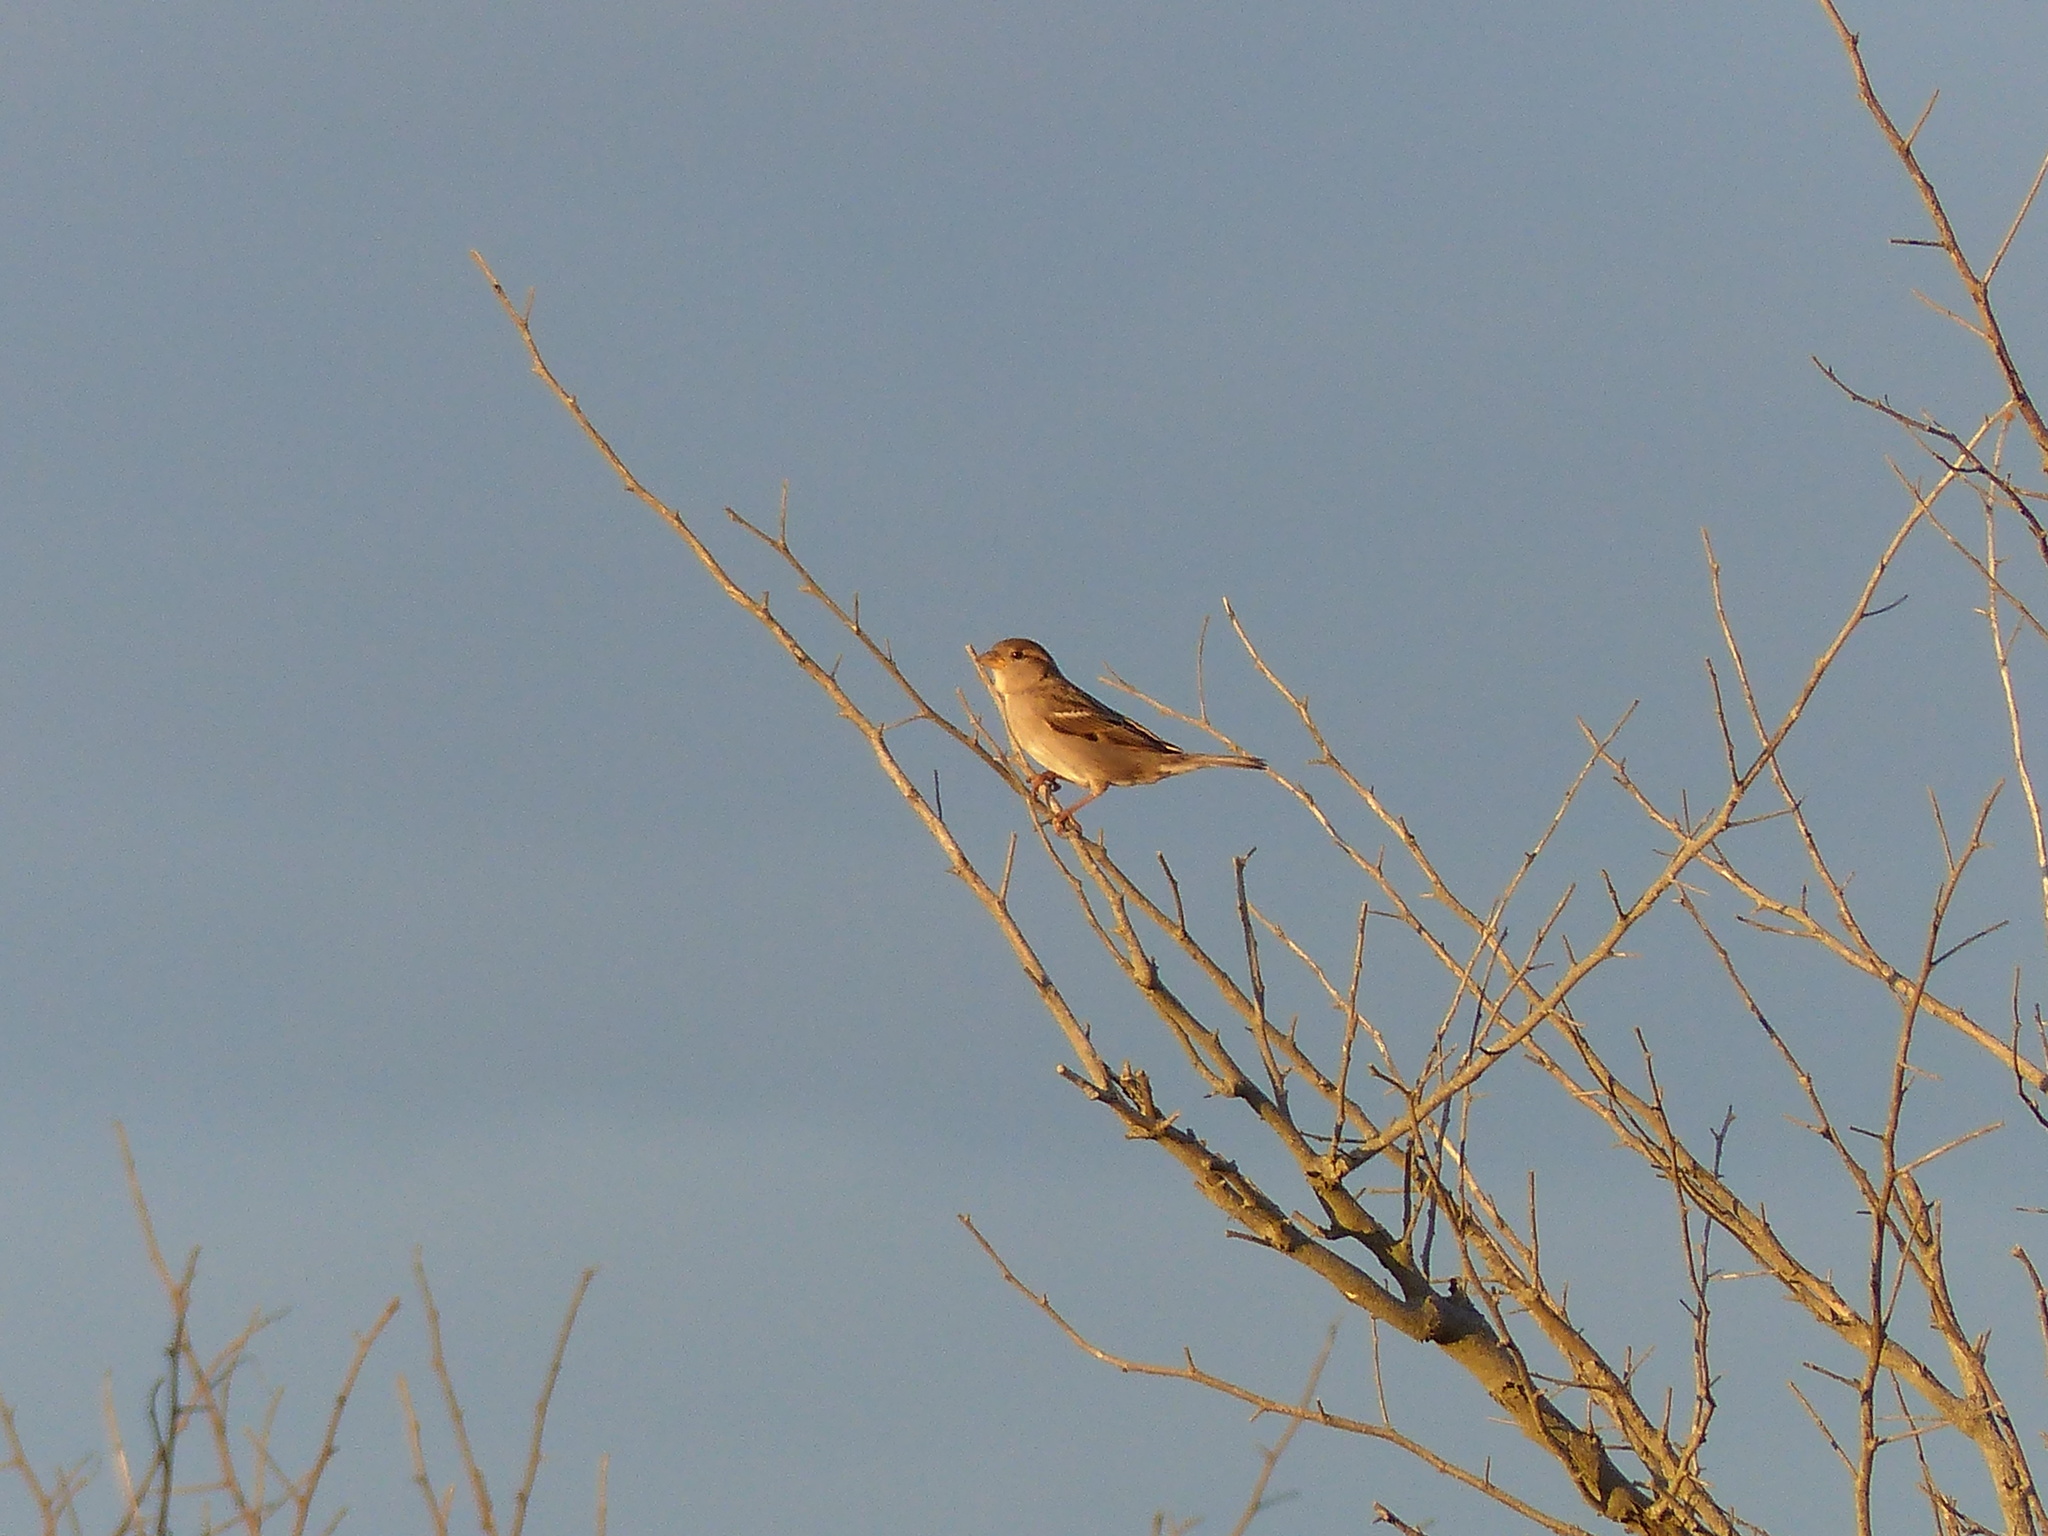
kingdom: Animalia
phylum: Chordata
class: Aves
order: Passeriformes
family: Passeridae
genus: Passer
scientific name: Passer domesticus
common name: House sparrow
